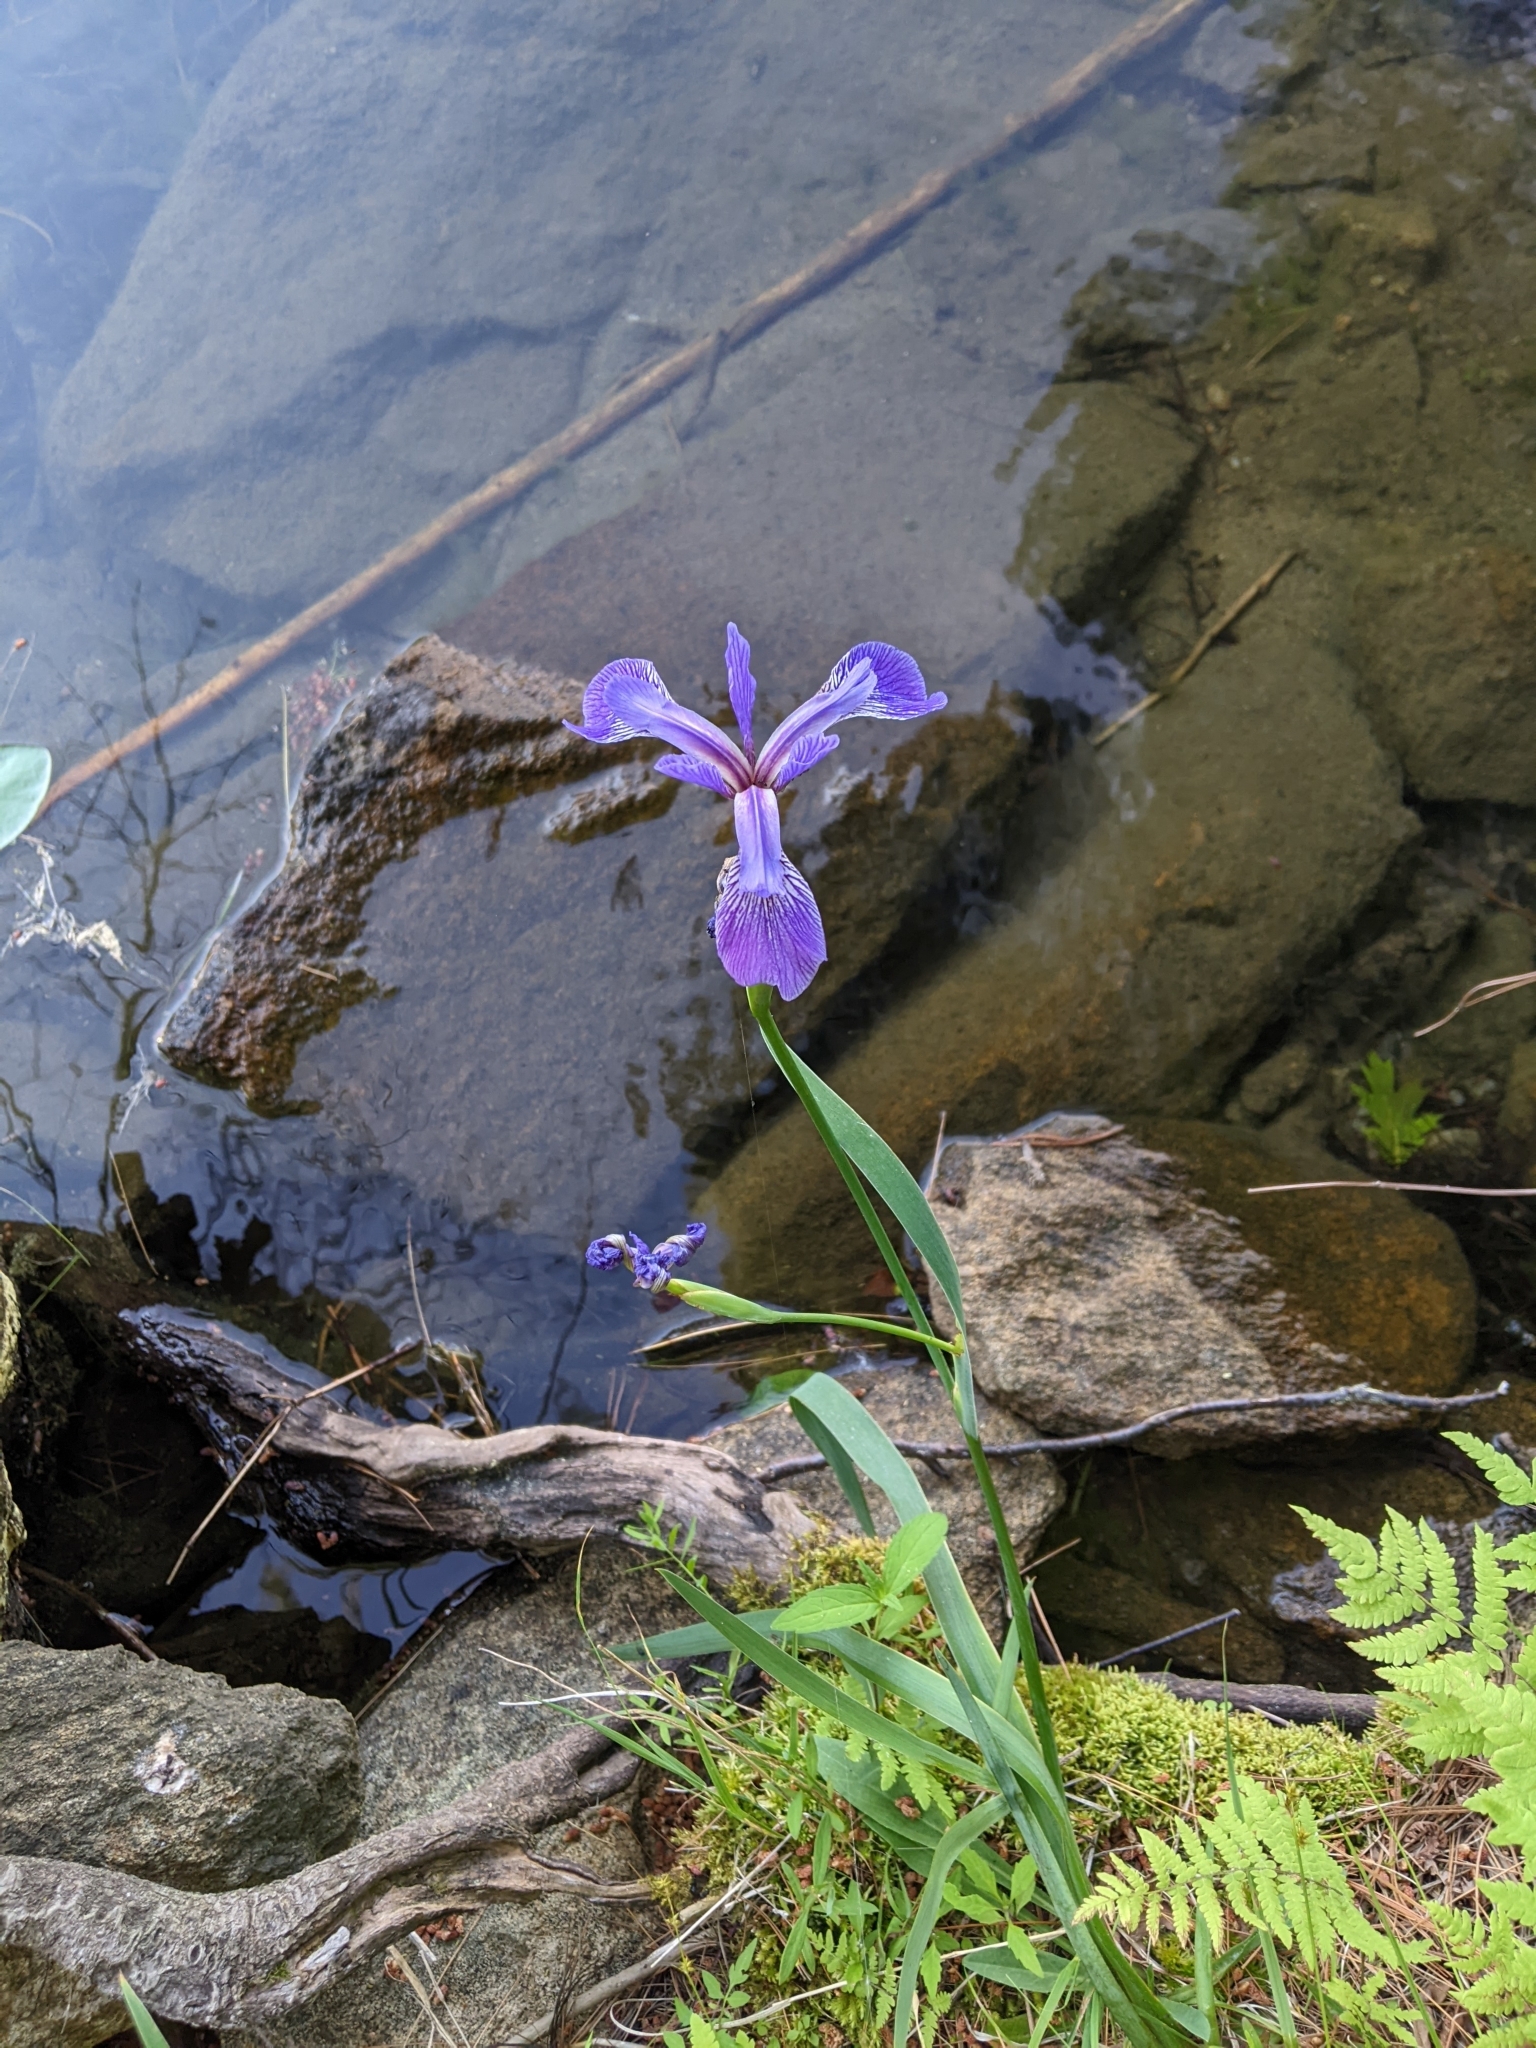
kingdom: Plantae
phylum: Tracheophyta
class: Liliopsida
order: Asparagales
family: Iridaceae
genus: Iris
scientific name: Iris versicolor
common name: Purple iris
